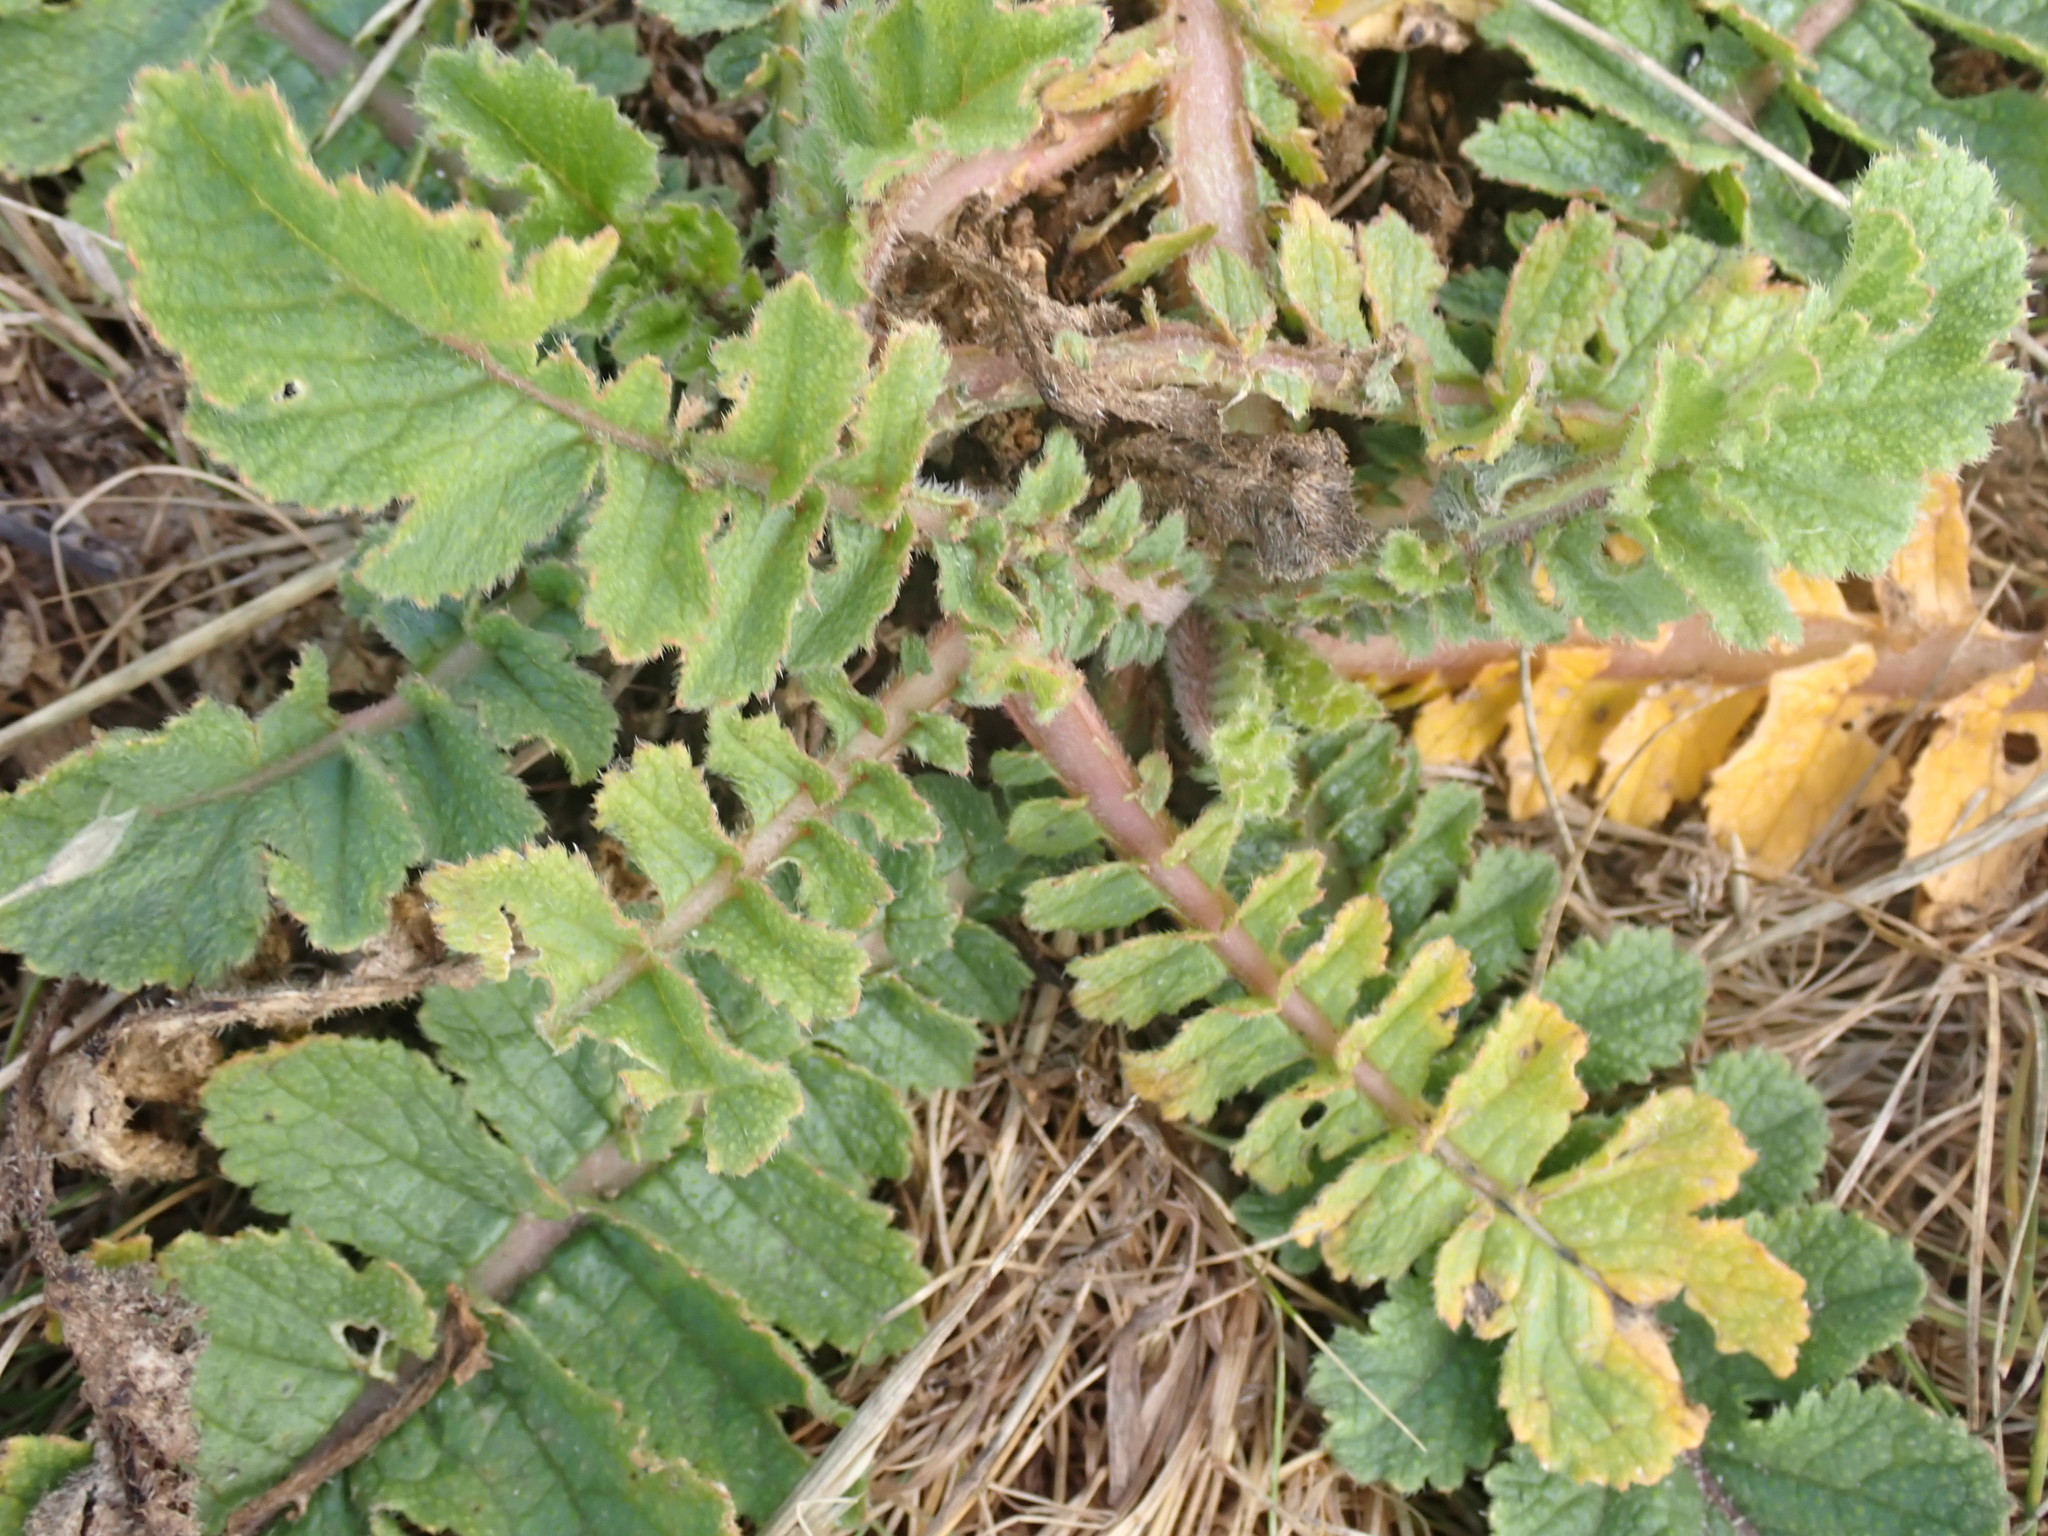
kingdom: Plantae
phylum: Tracheophyta
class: Magnoliopsida
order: Brassicales
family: Brassicaceae
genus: Raphanus
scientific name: Raphanus raphanistrum
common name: Wild radish
